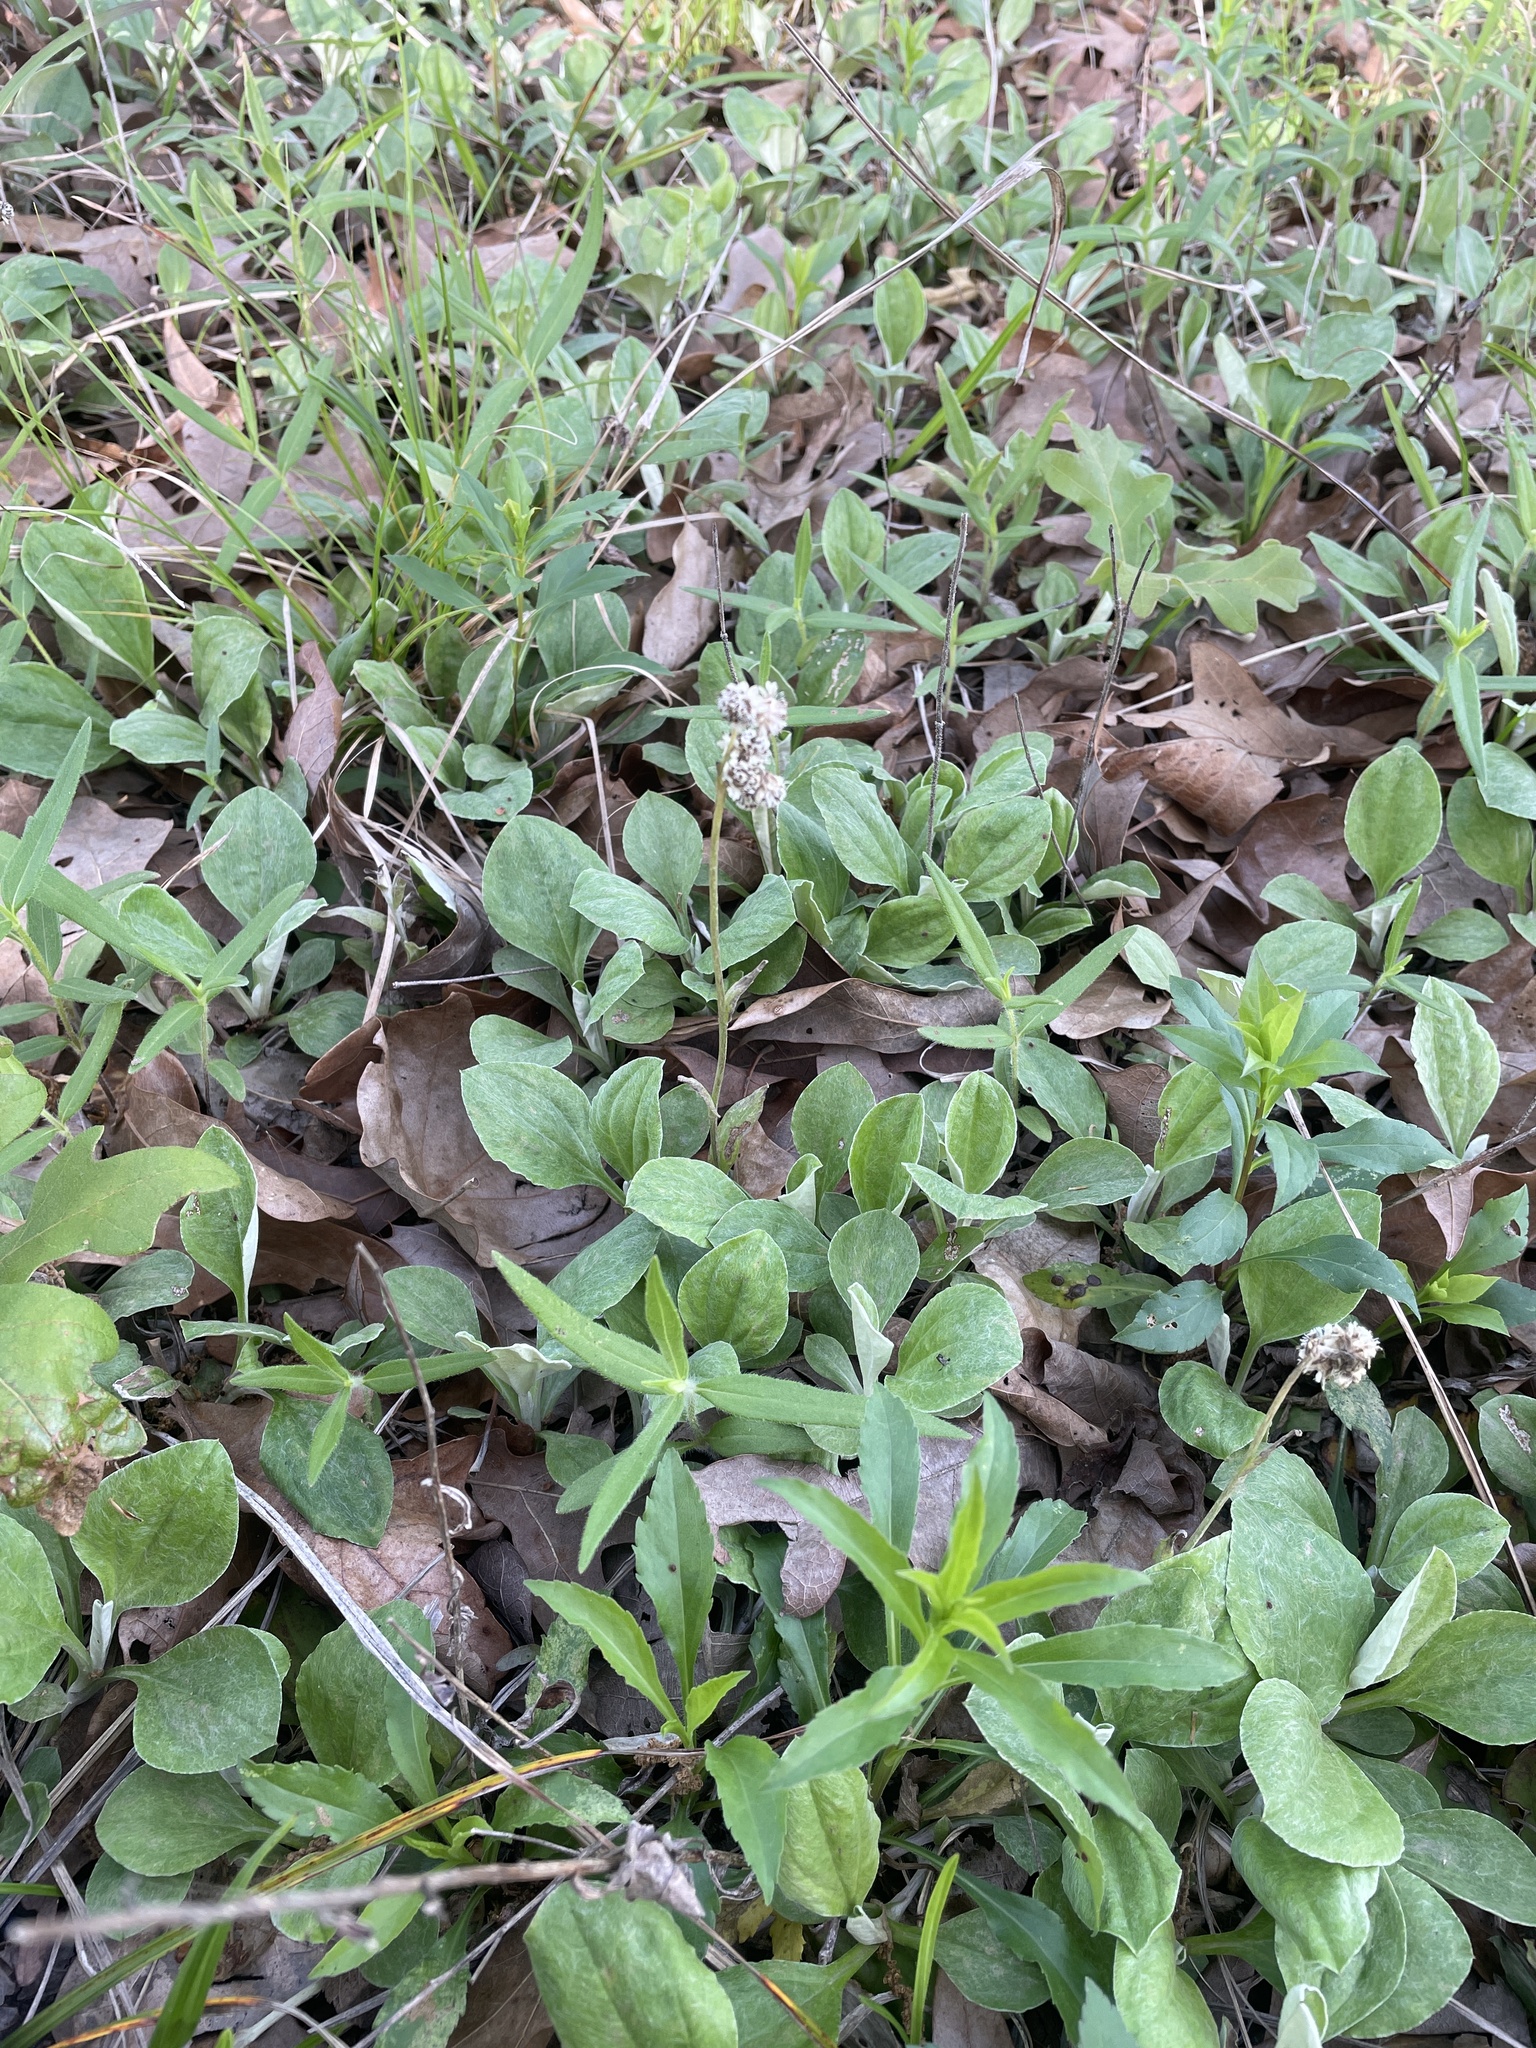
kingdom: Plantae
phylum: Tracheophyta
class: Magnoliopsida
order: Asterales
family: Asteraceae
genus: Antennaria
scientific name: Antennaria parlinii
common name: Parlin's pussytoes
